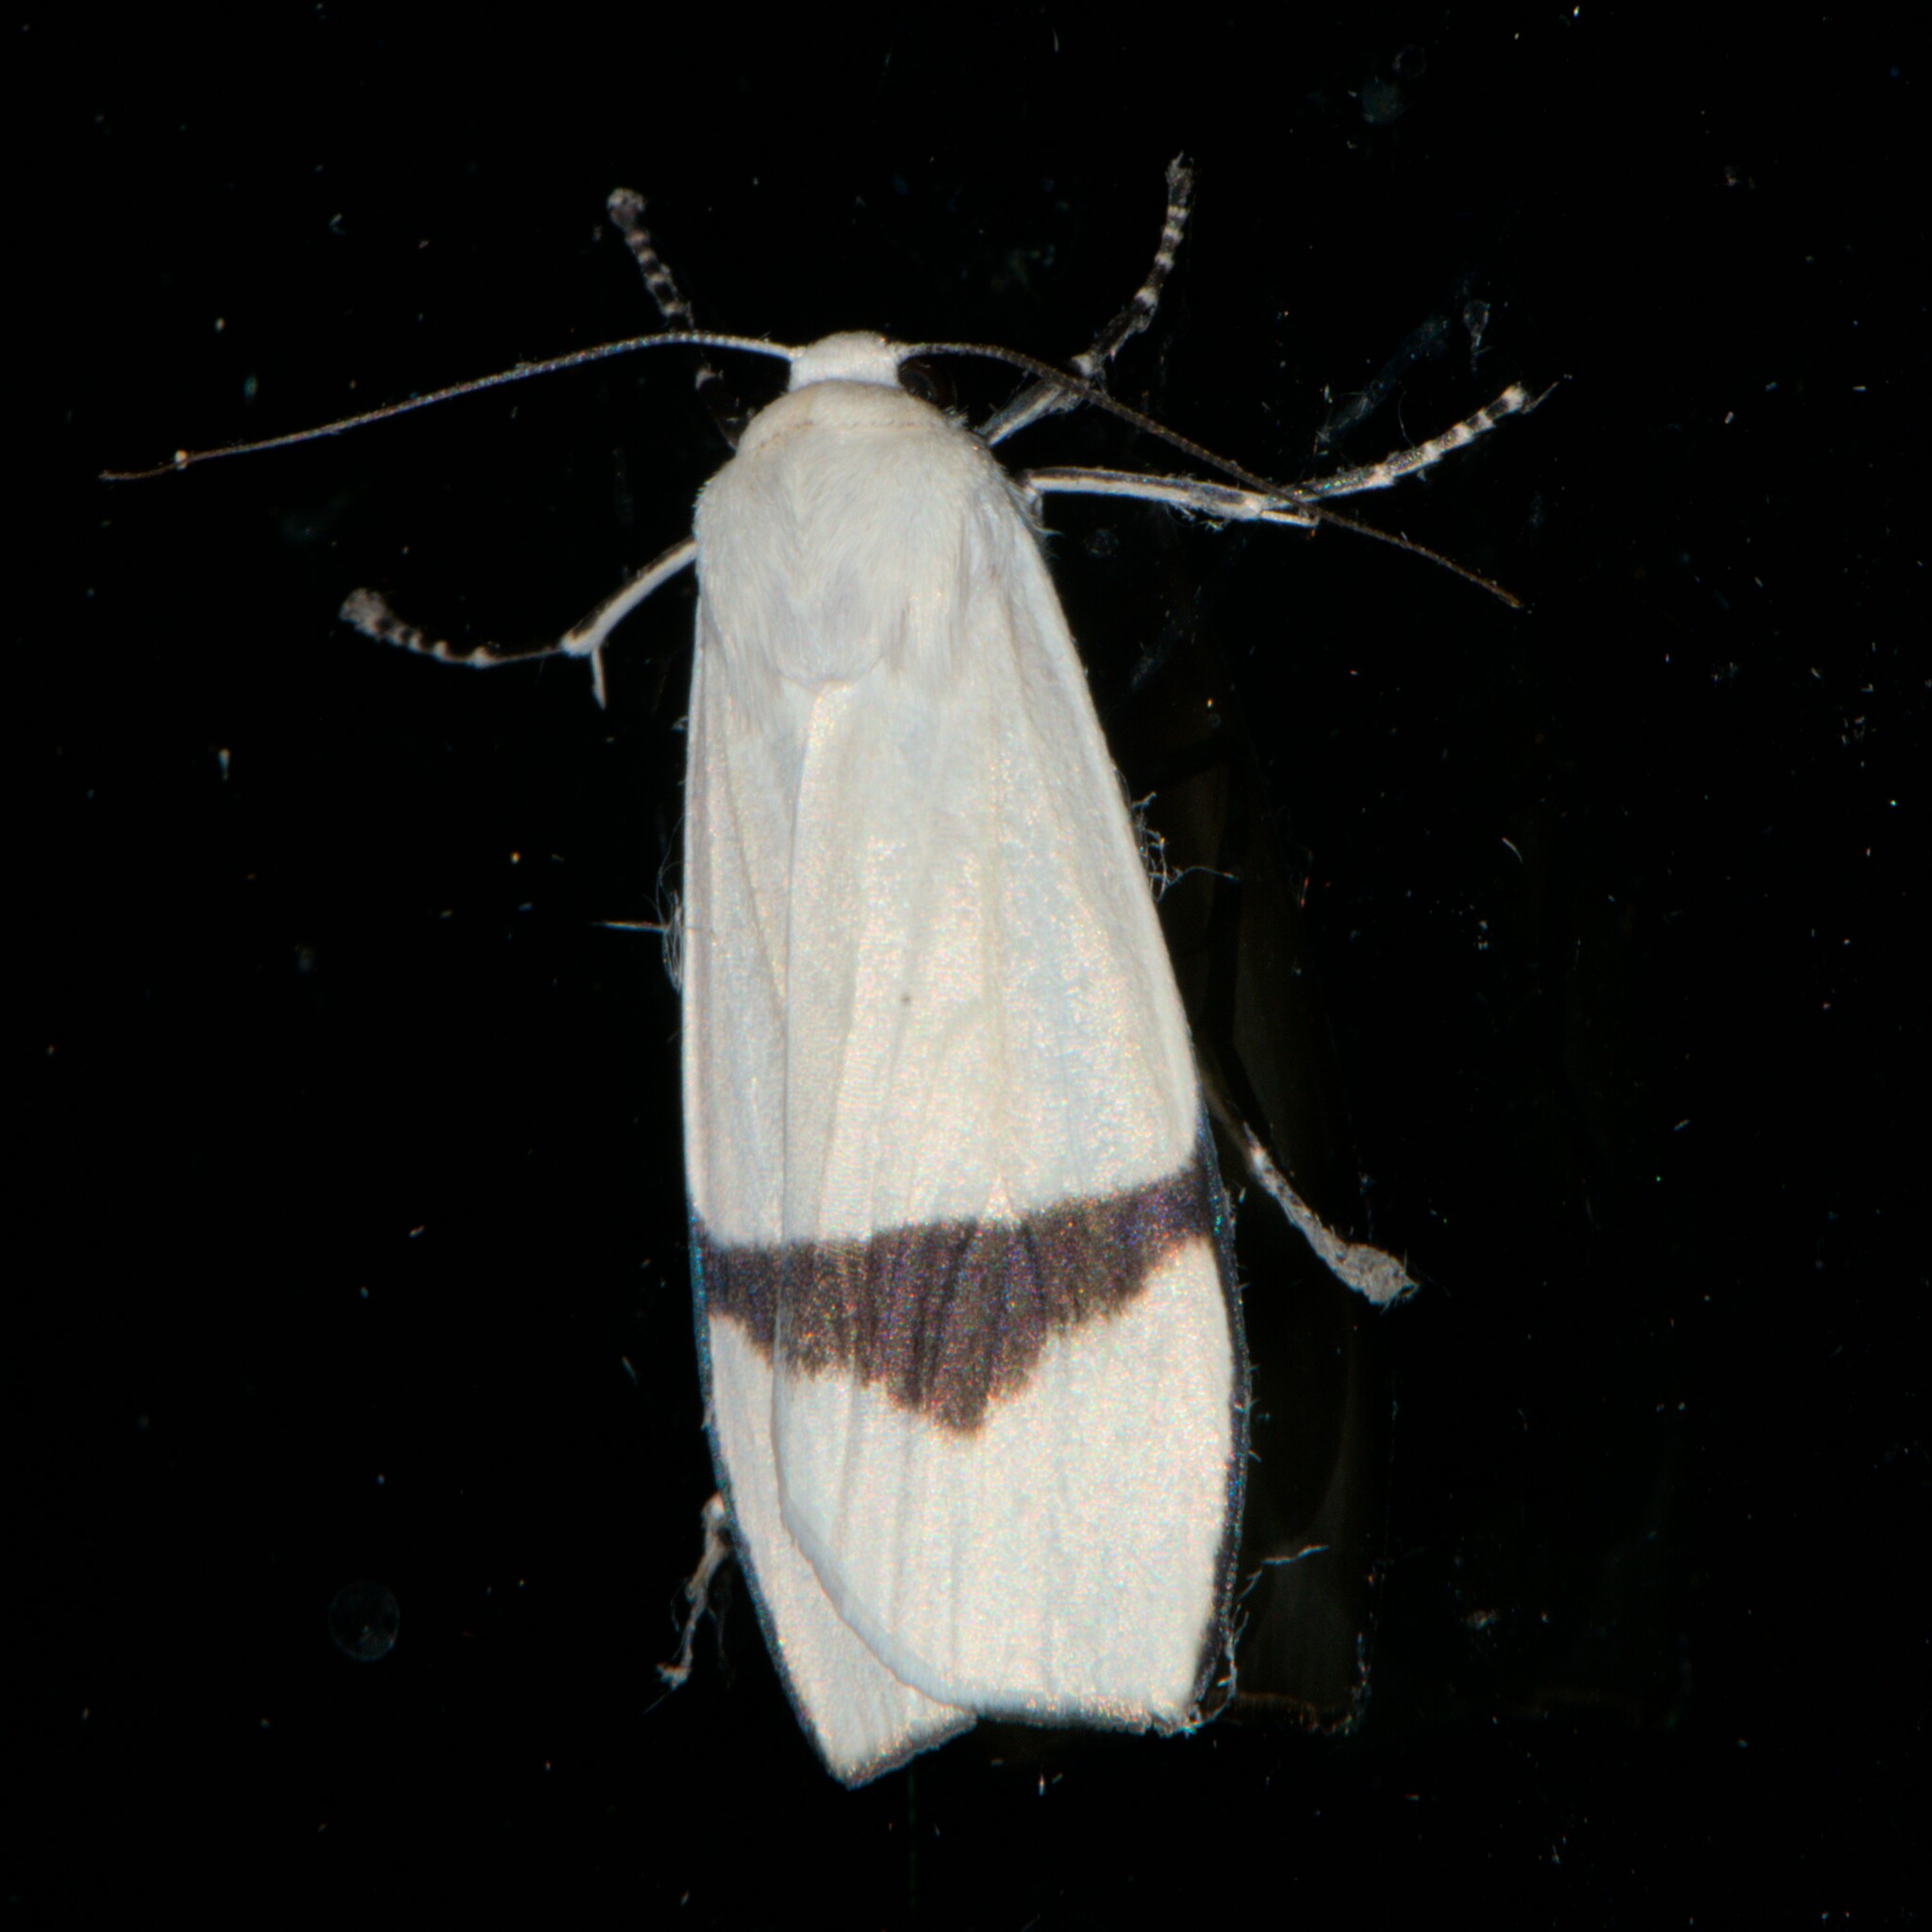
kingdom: Animalia
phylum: Arthropoda
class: Insecta
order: Lepidoptera
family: Erebidae
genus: Vamuna
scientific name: Vamuna remelana
